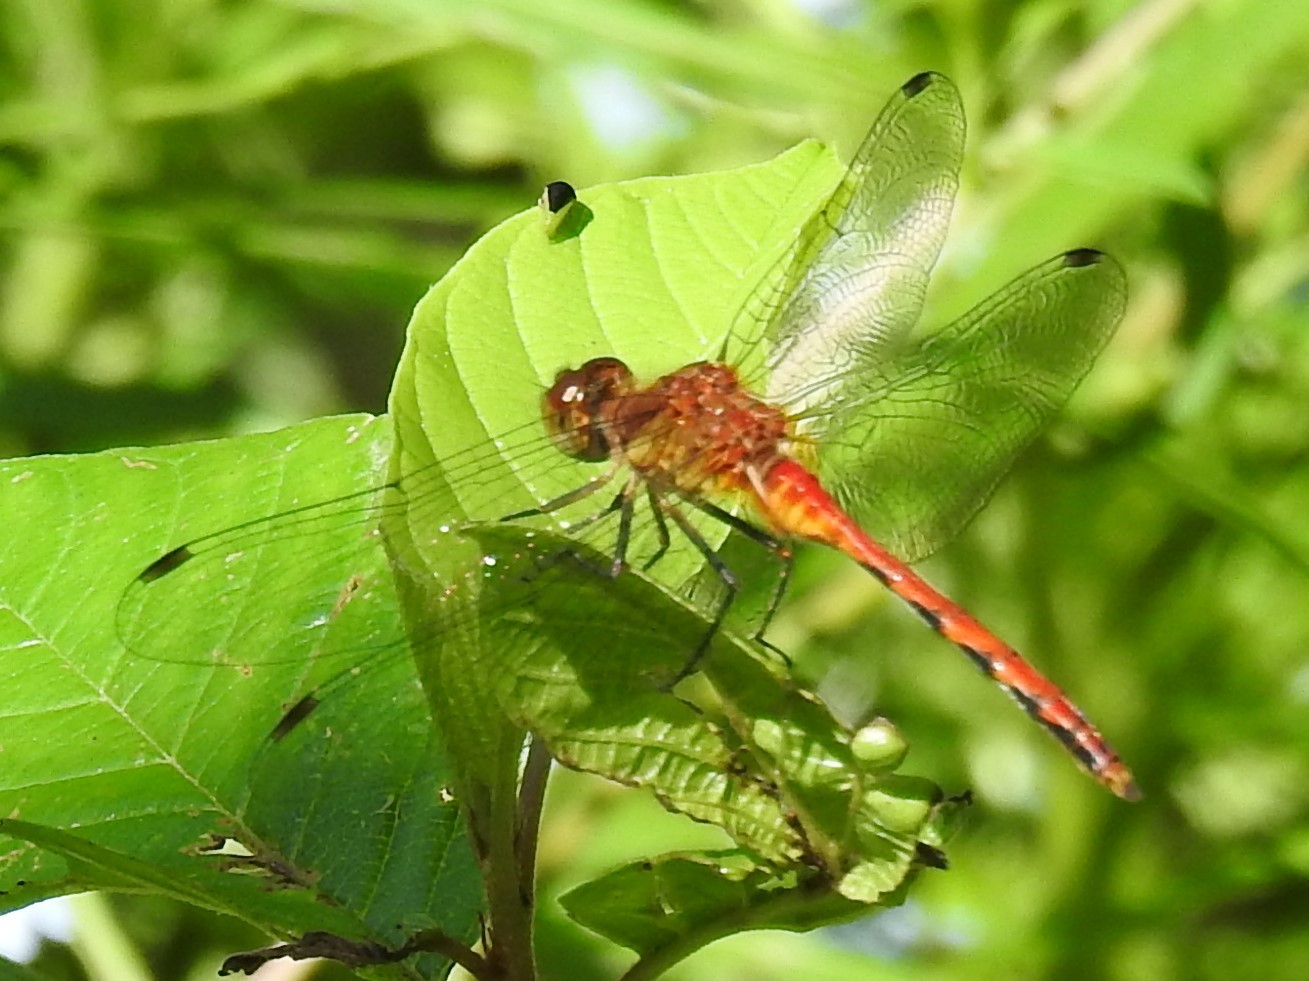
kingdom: Animalia
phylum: Arthropoda
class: Insecta
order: Odonata
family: Libellulidae
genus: Sympetrum
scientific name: Sympetrum
